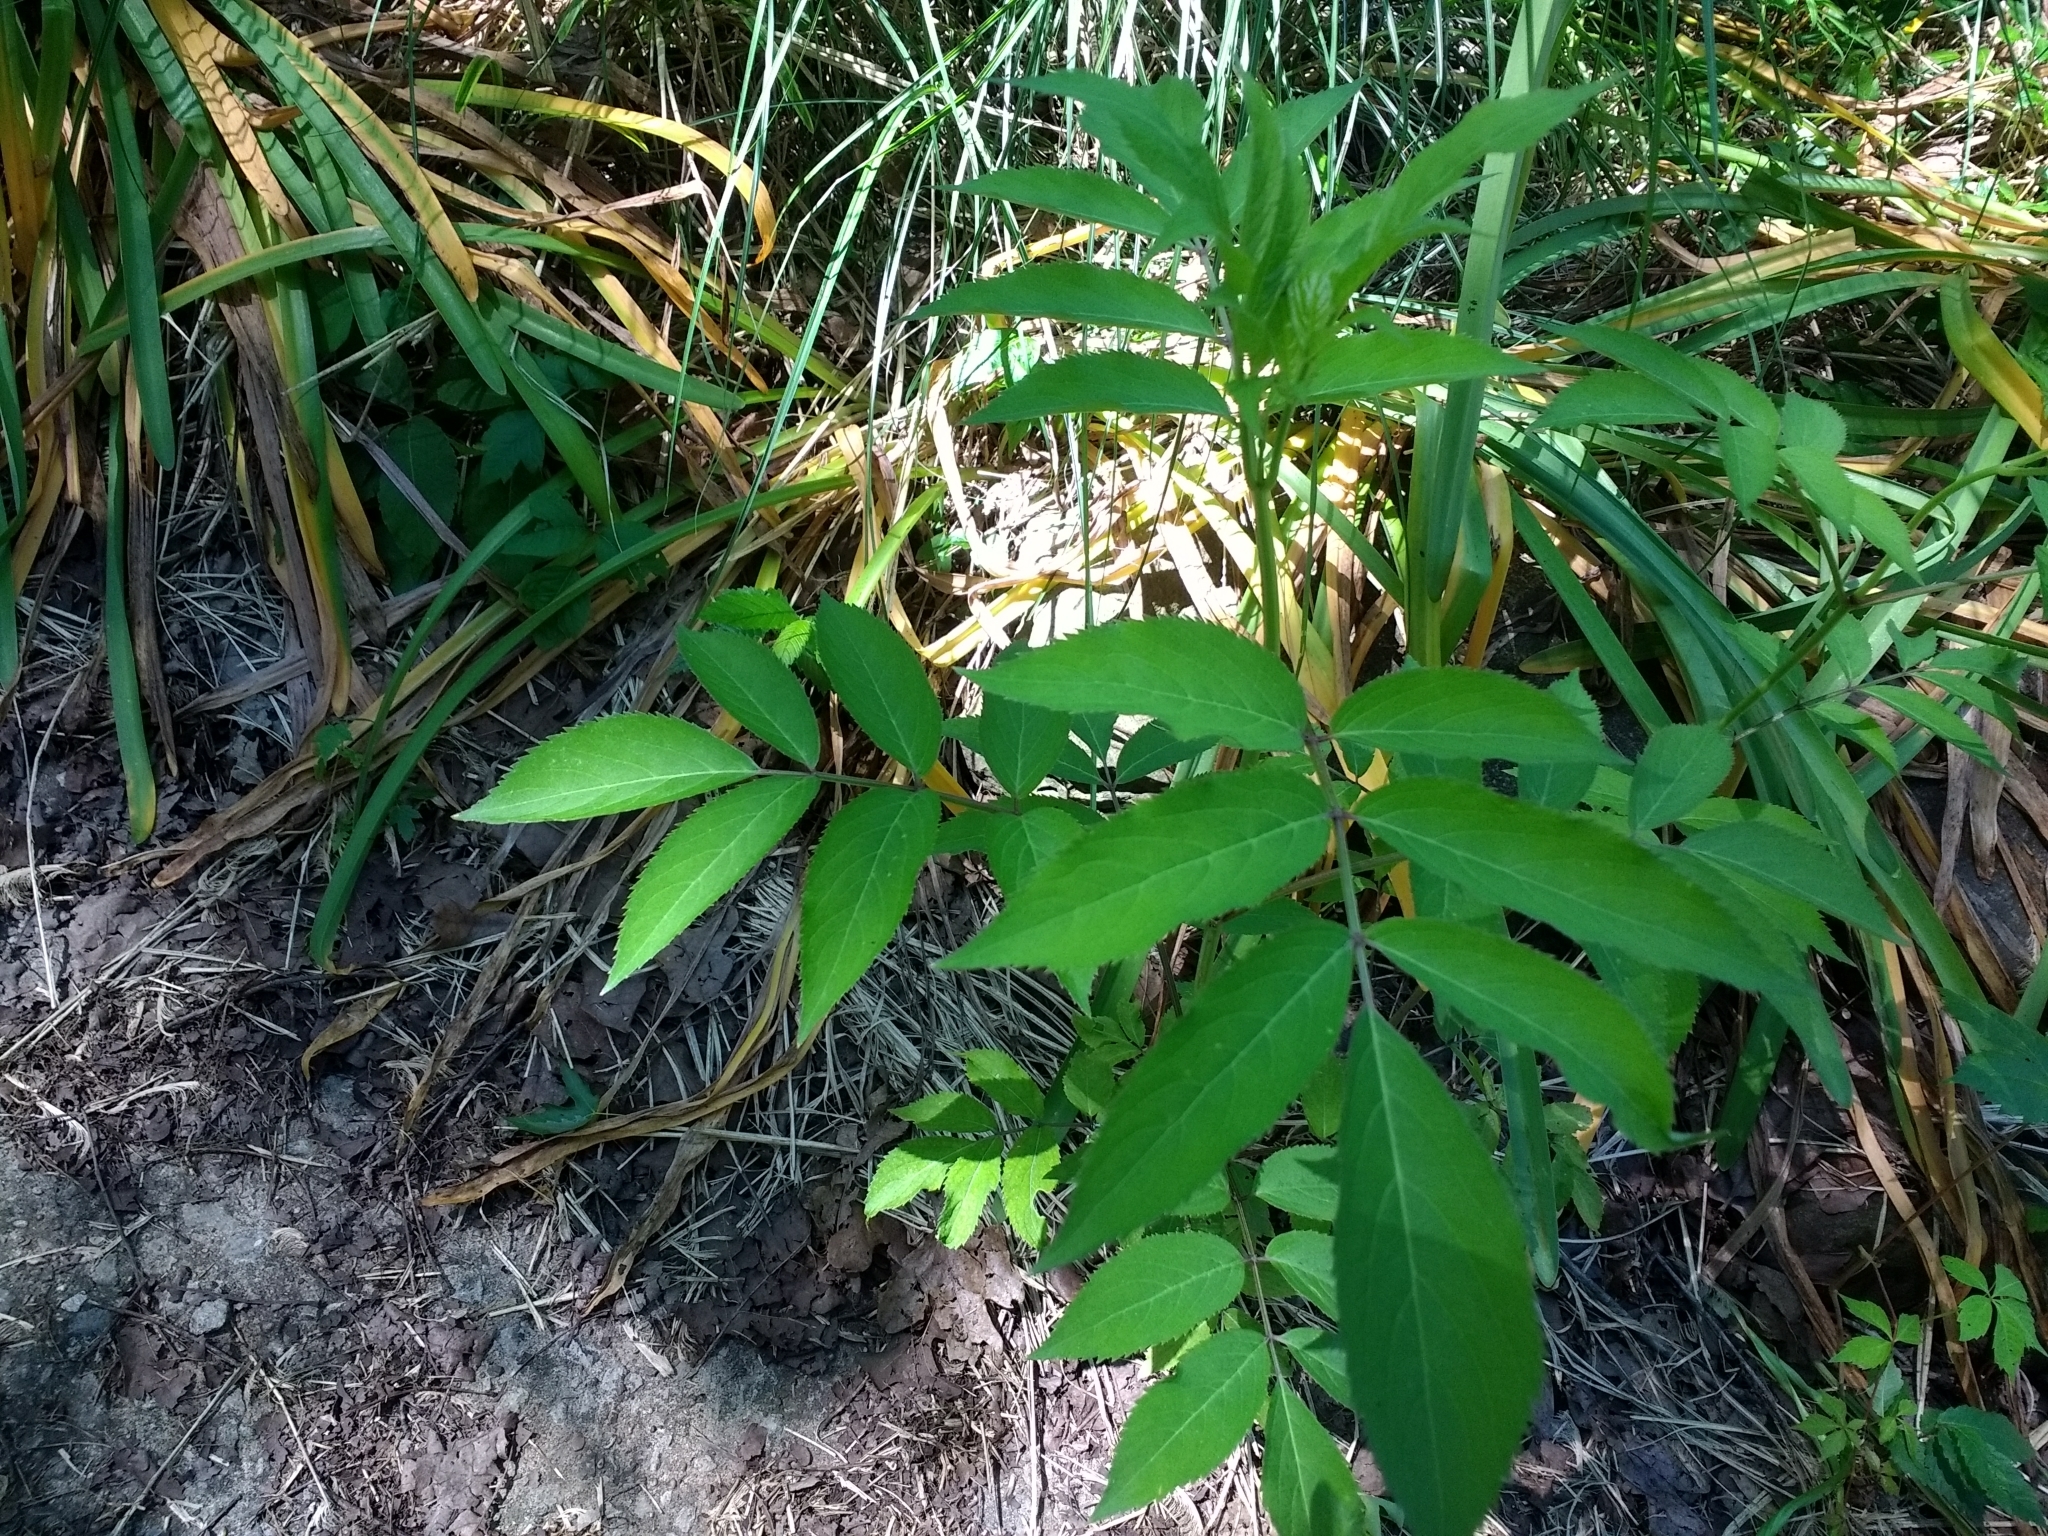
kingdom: Plantae
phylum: Tracheophyta
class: Magnoliopsida
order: Dipsacales
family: Viburnaceae
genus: Sambucus
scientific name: Sambucus canadensis
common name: American elder
